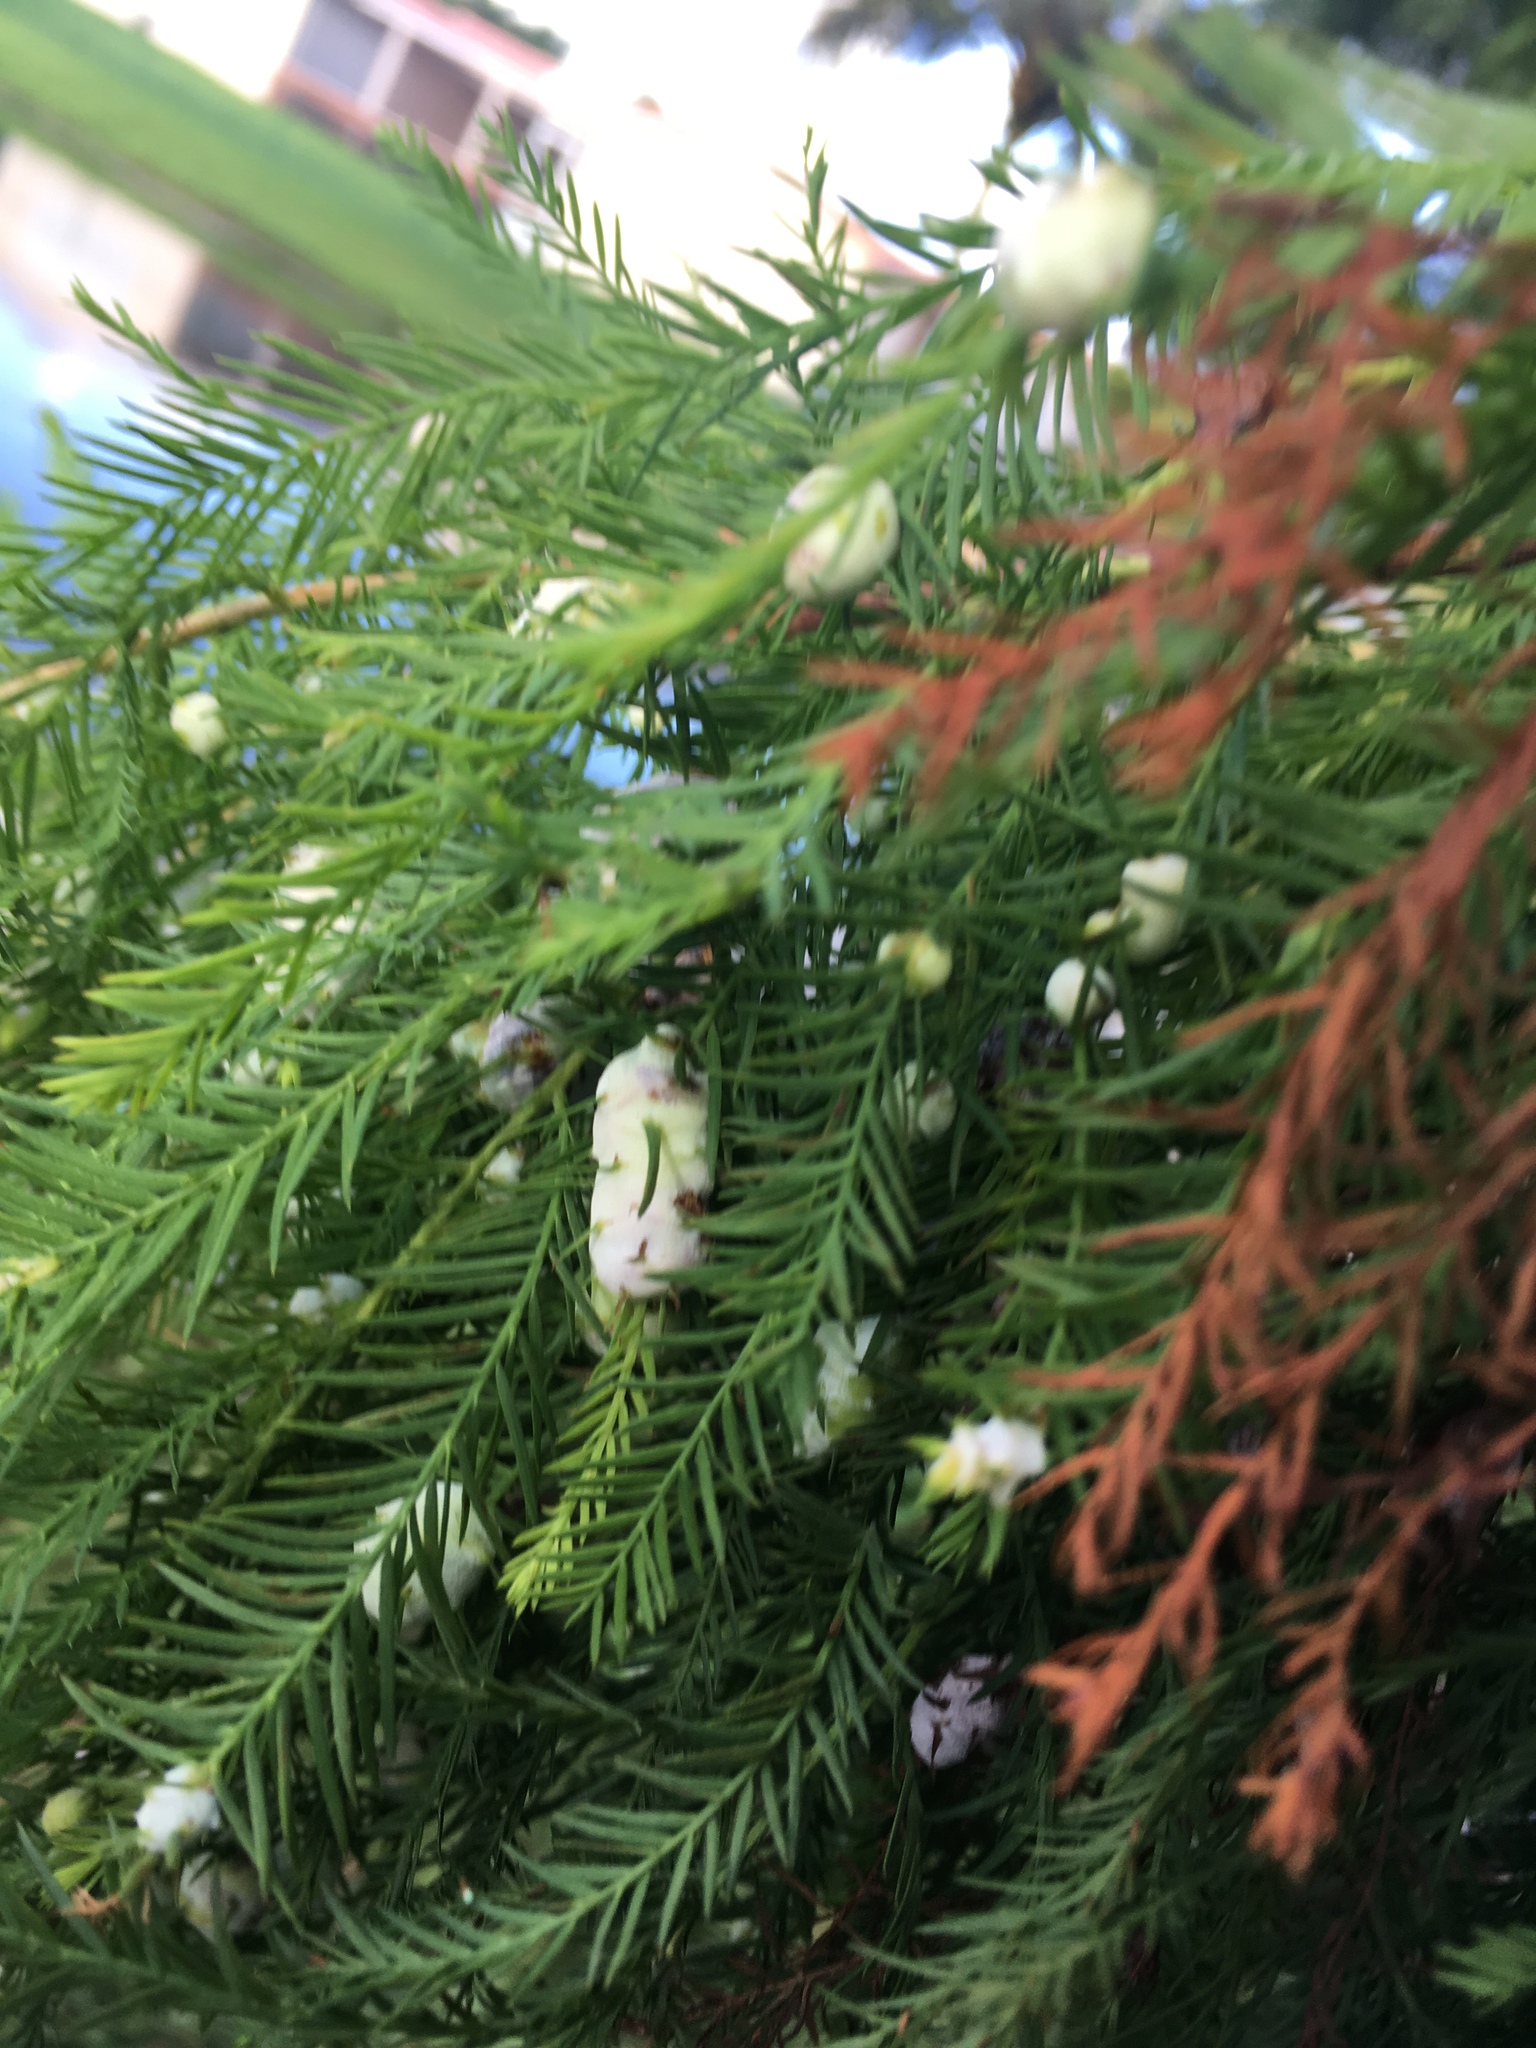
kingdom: Animalia
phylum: Arthropoda
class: Insecta
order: Diptera
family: Cecidomyiidae
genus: Taxodiomyia
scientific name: Taxodiomyia cupressiananassa
